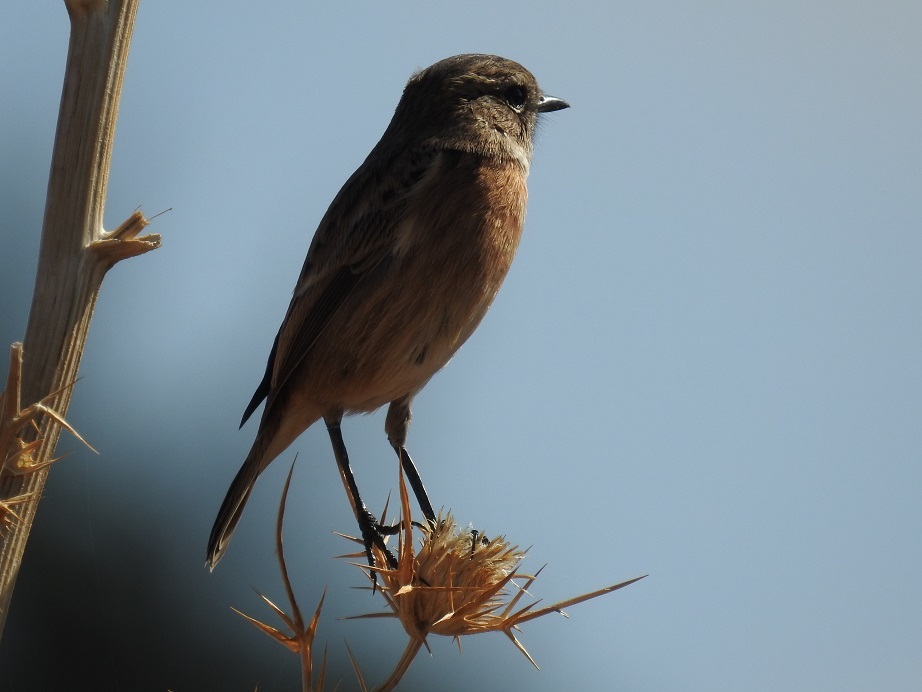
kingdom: Animalia
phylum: Chordata
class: Aves
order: Passeriformes
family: Muscicapidae
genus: Saxicola
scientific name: Saxicola rubicola
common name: European stonechat
